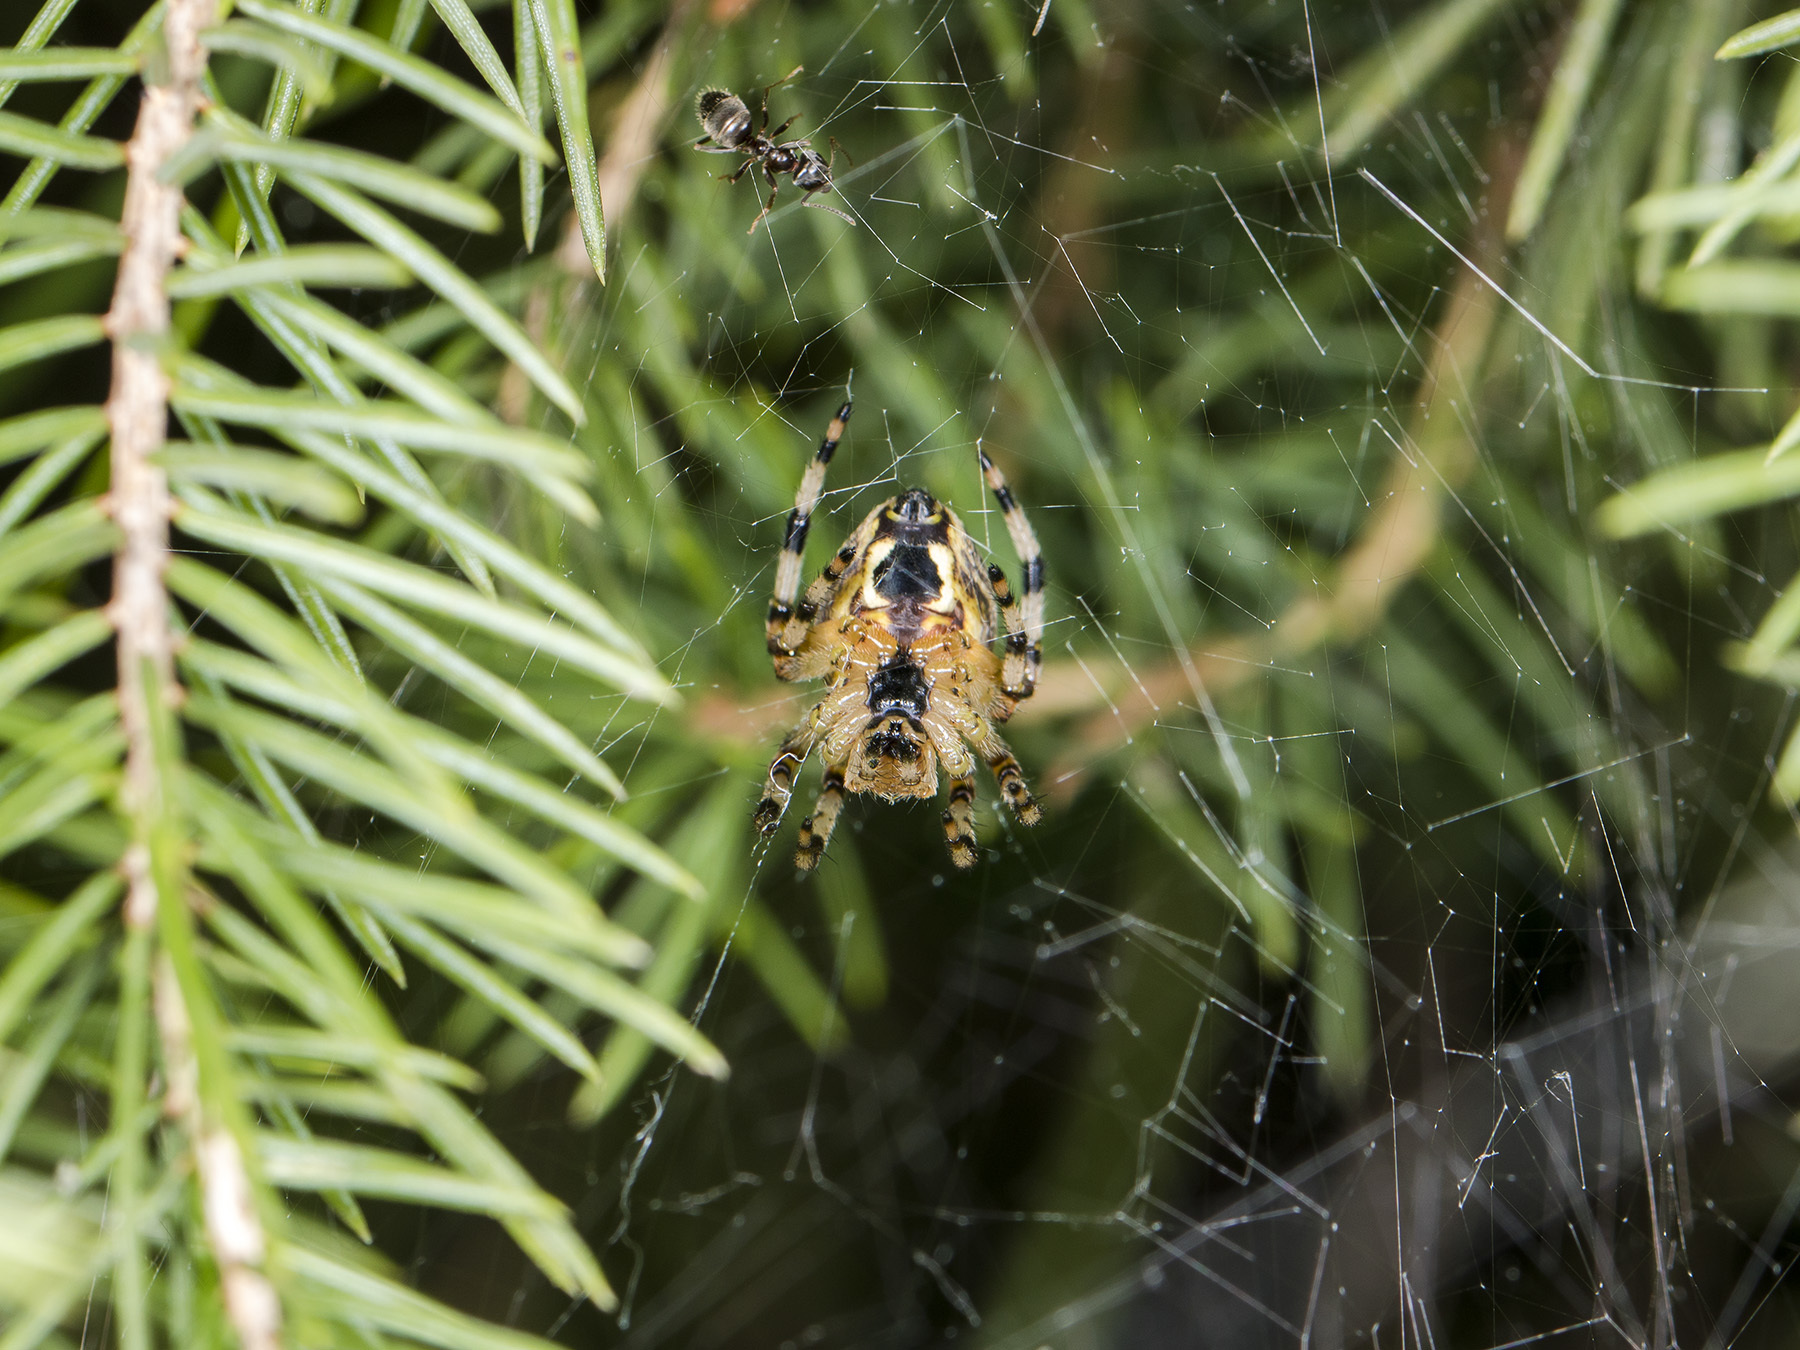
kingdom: Animalia
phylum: Arthropoda
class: Arachnida
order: Araneae
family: Araneidae
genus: Araneus
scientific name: Araneus marmoreus
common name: Marbled orbweaver
